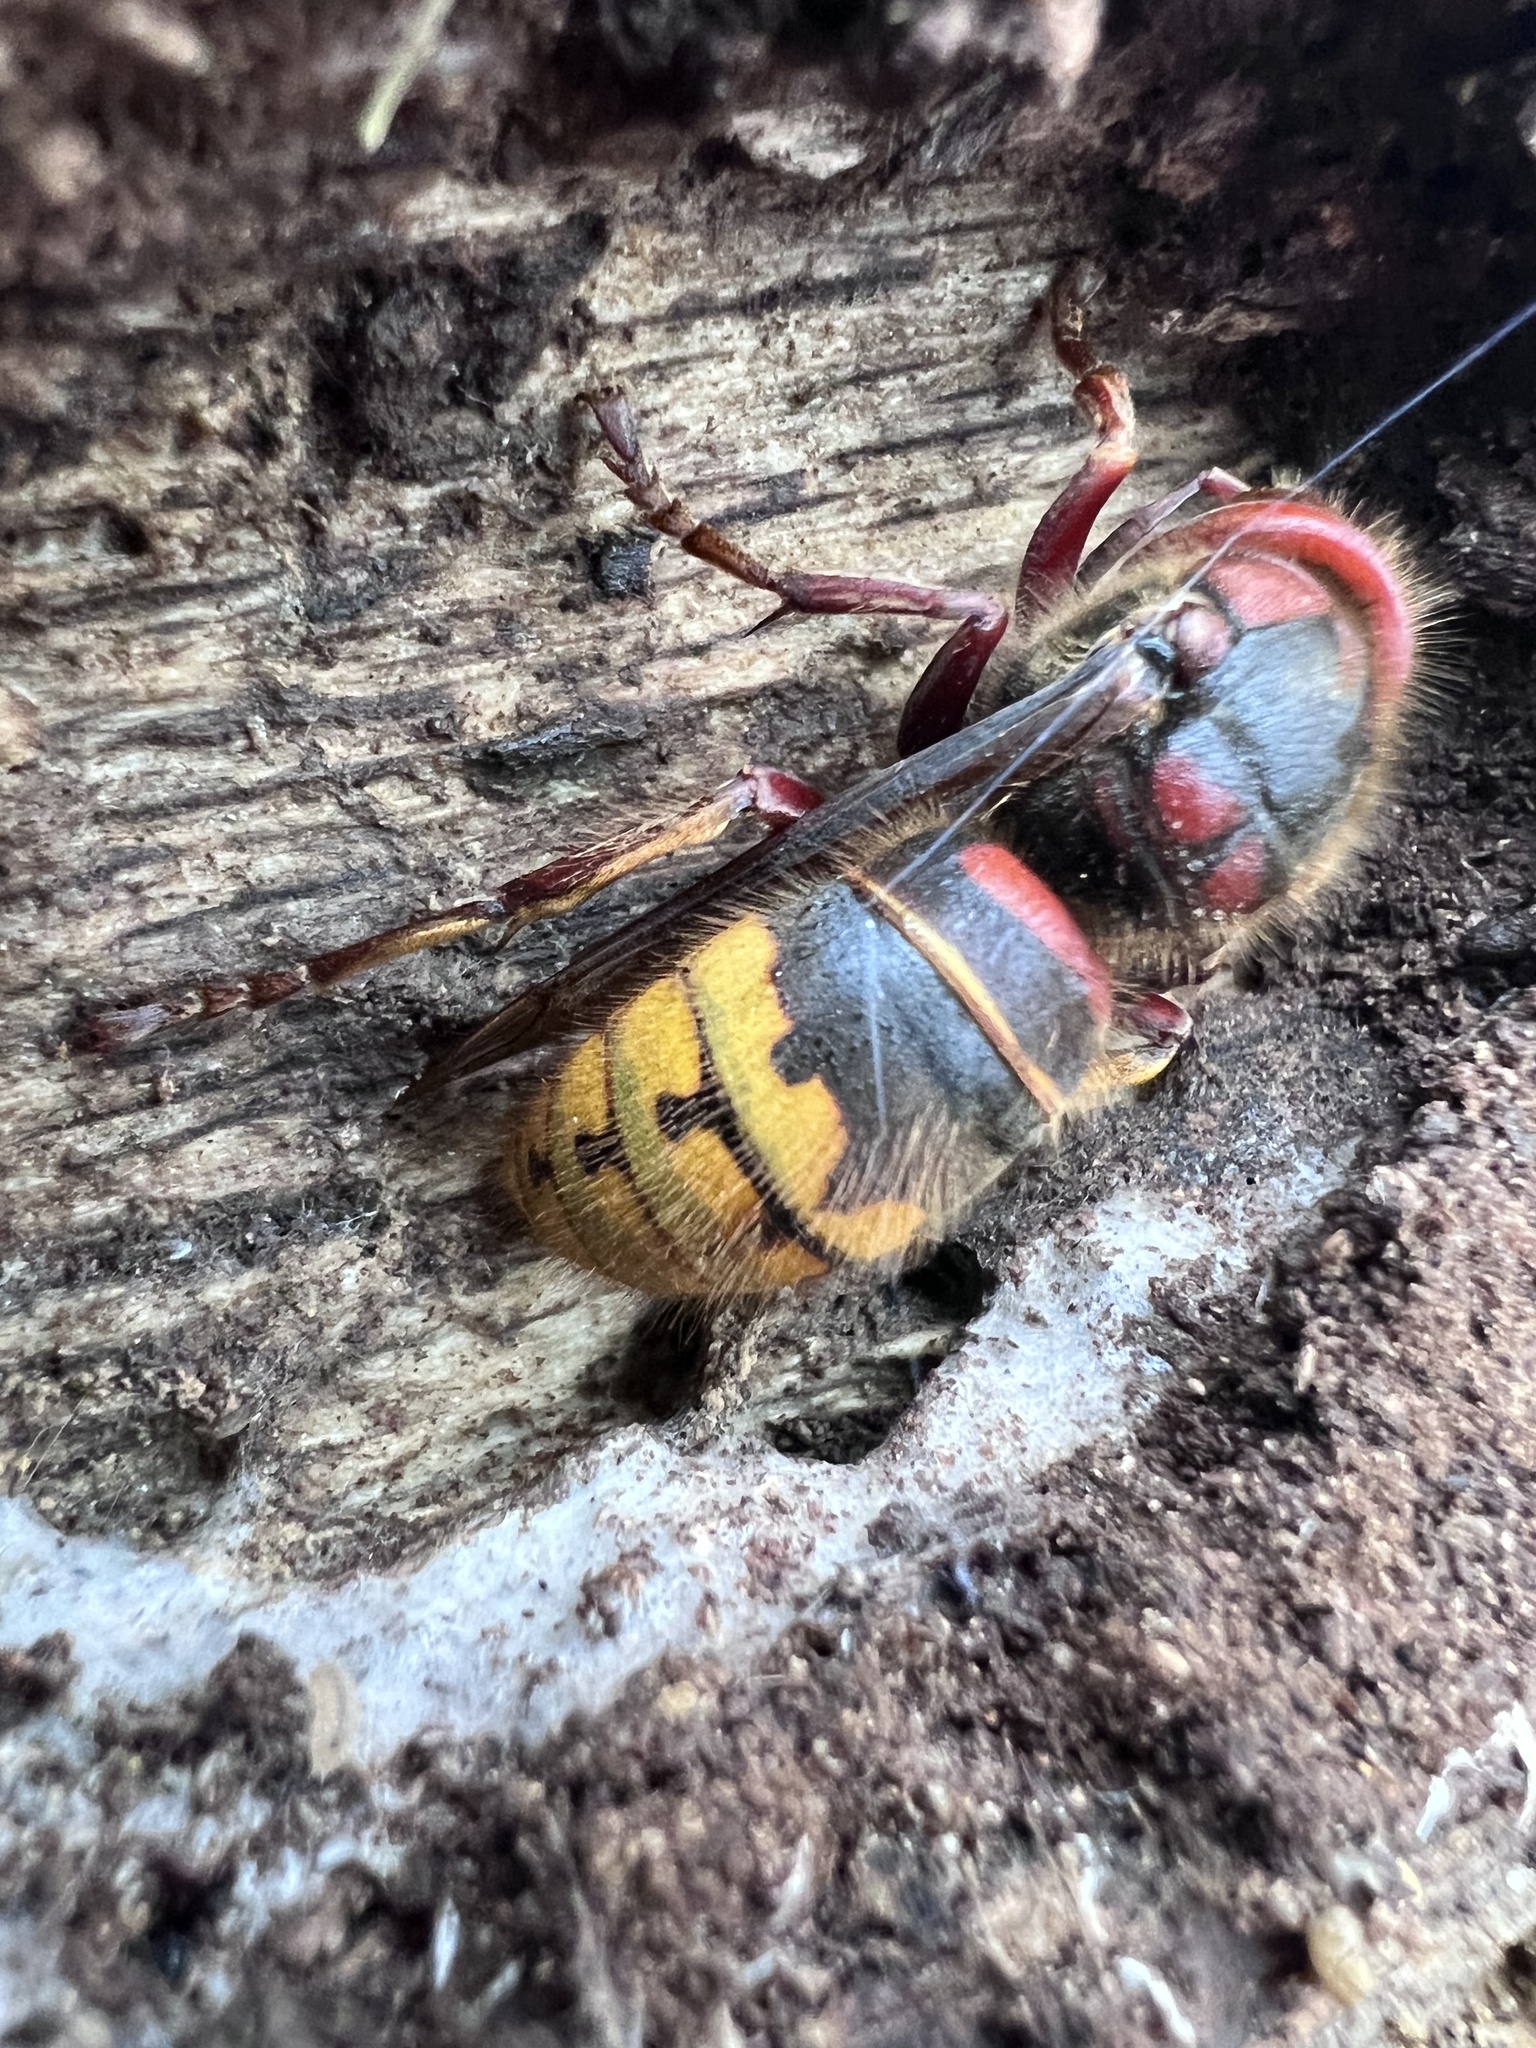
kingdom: Animalia
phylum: Arthropoda
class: Insecta
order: Hymenoptera
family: Vespidae
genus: Vespa
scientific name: Vespa crabro
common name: Hornet
